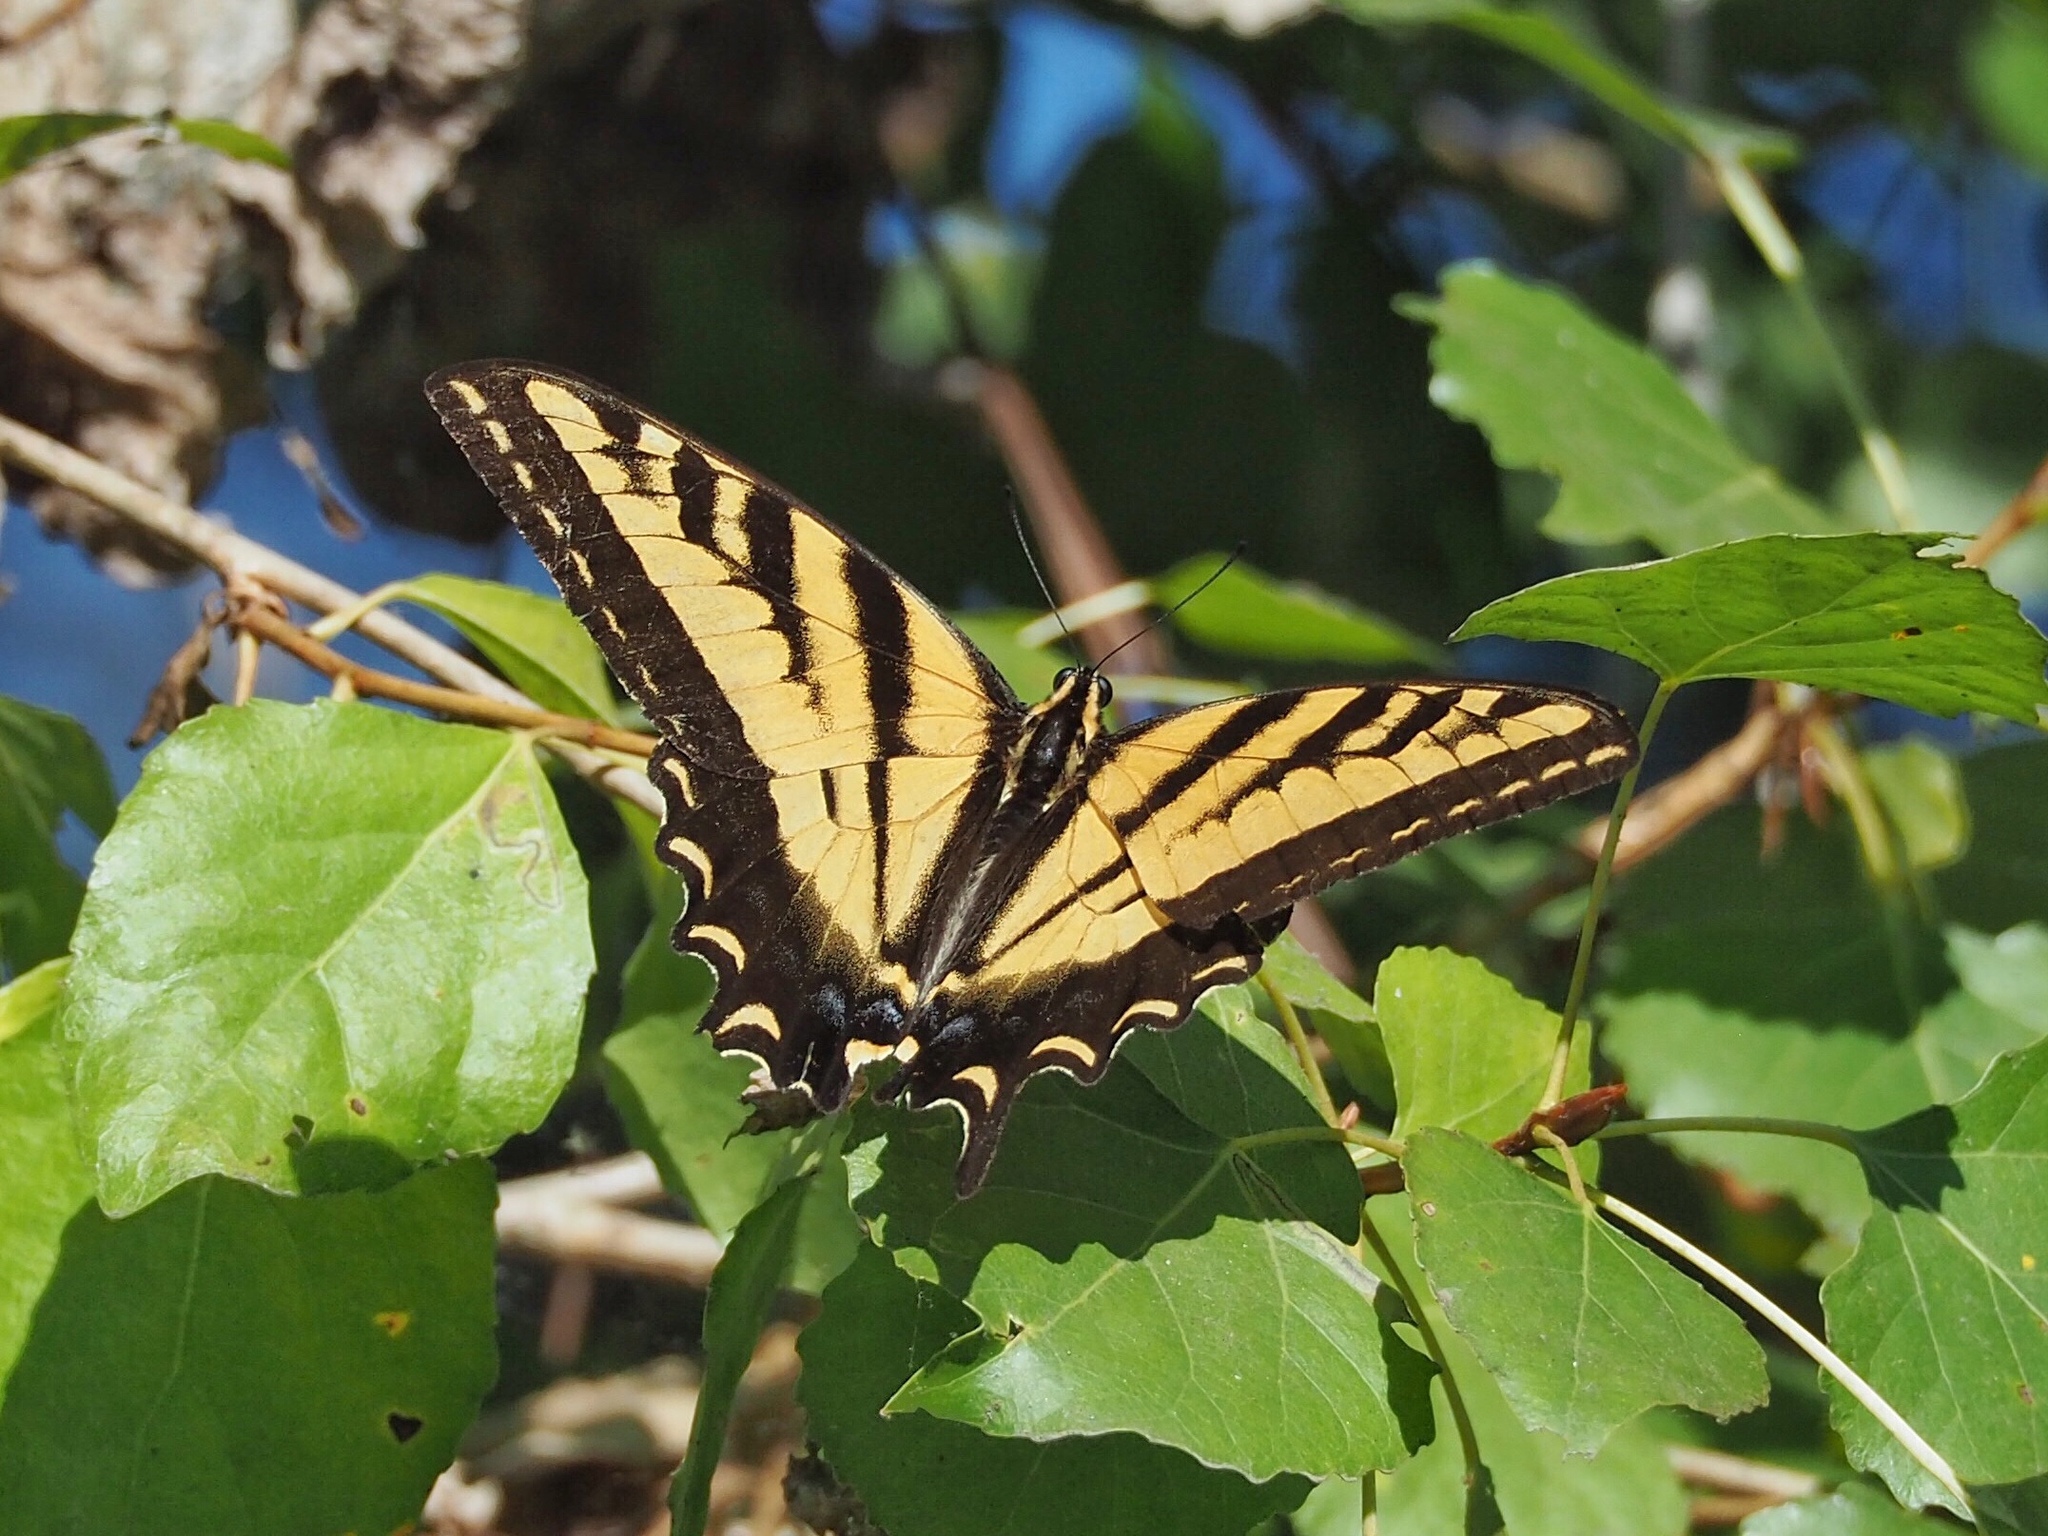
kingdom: Animalia
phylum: Arthropoda
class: Insecta
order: Lepidoptera
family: Papilionidae
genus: Papilio
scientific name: Papilio rutulus
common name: Western tiger swallowtail
